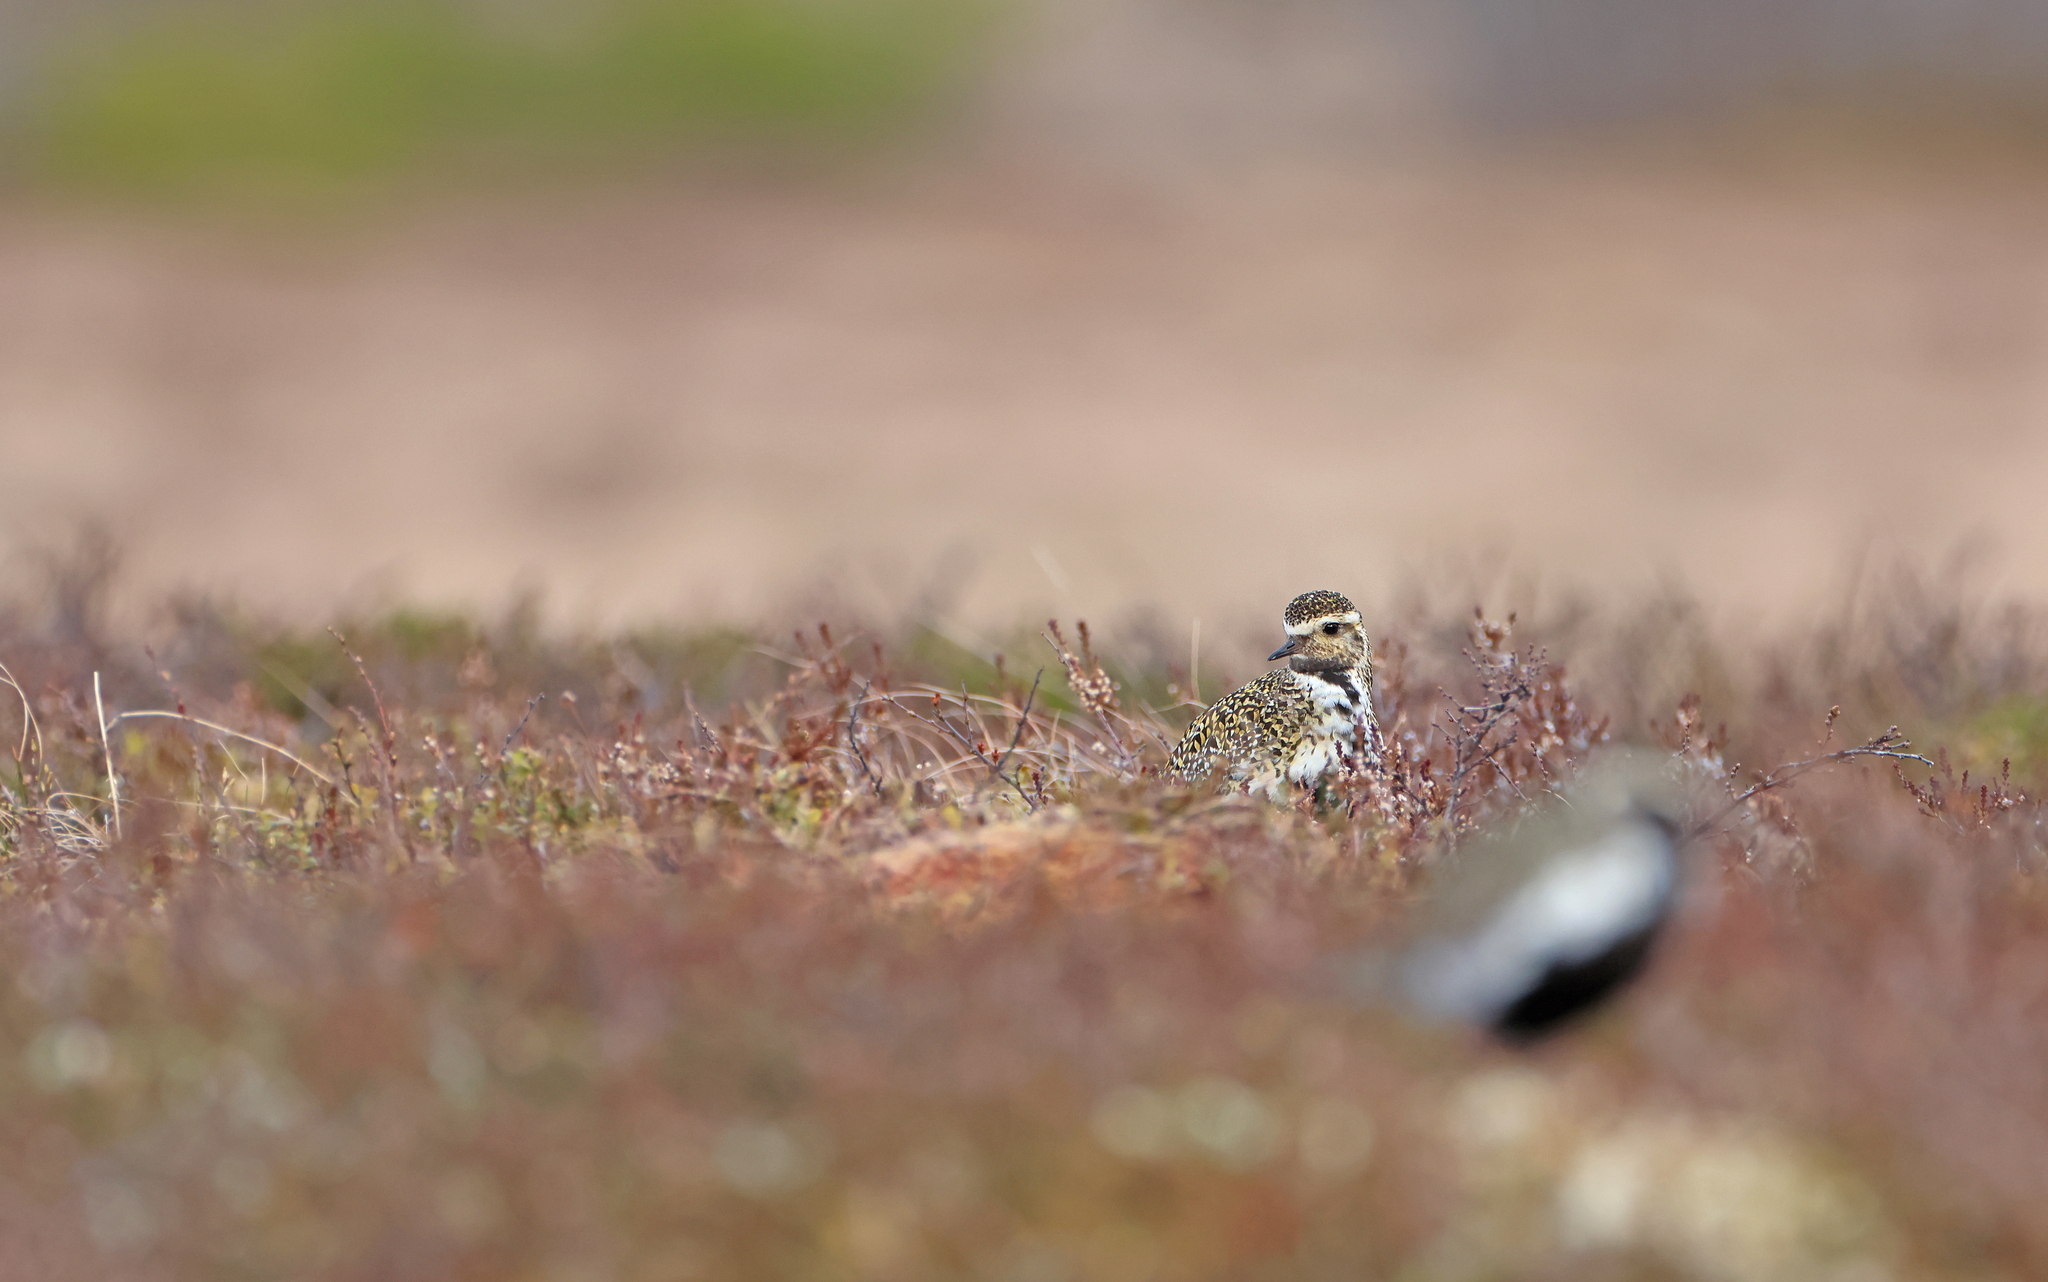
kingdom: Animalia
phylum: Chordata
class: Aves
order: Charadriiformes
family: Charadriidae
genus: Pluvialis
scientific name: Pluvialis apricaria
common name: European golden plover
